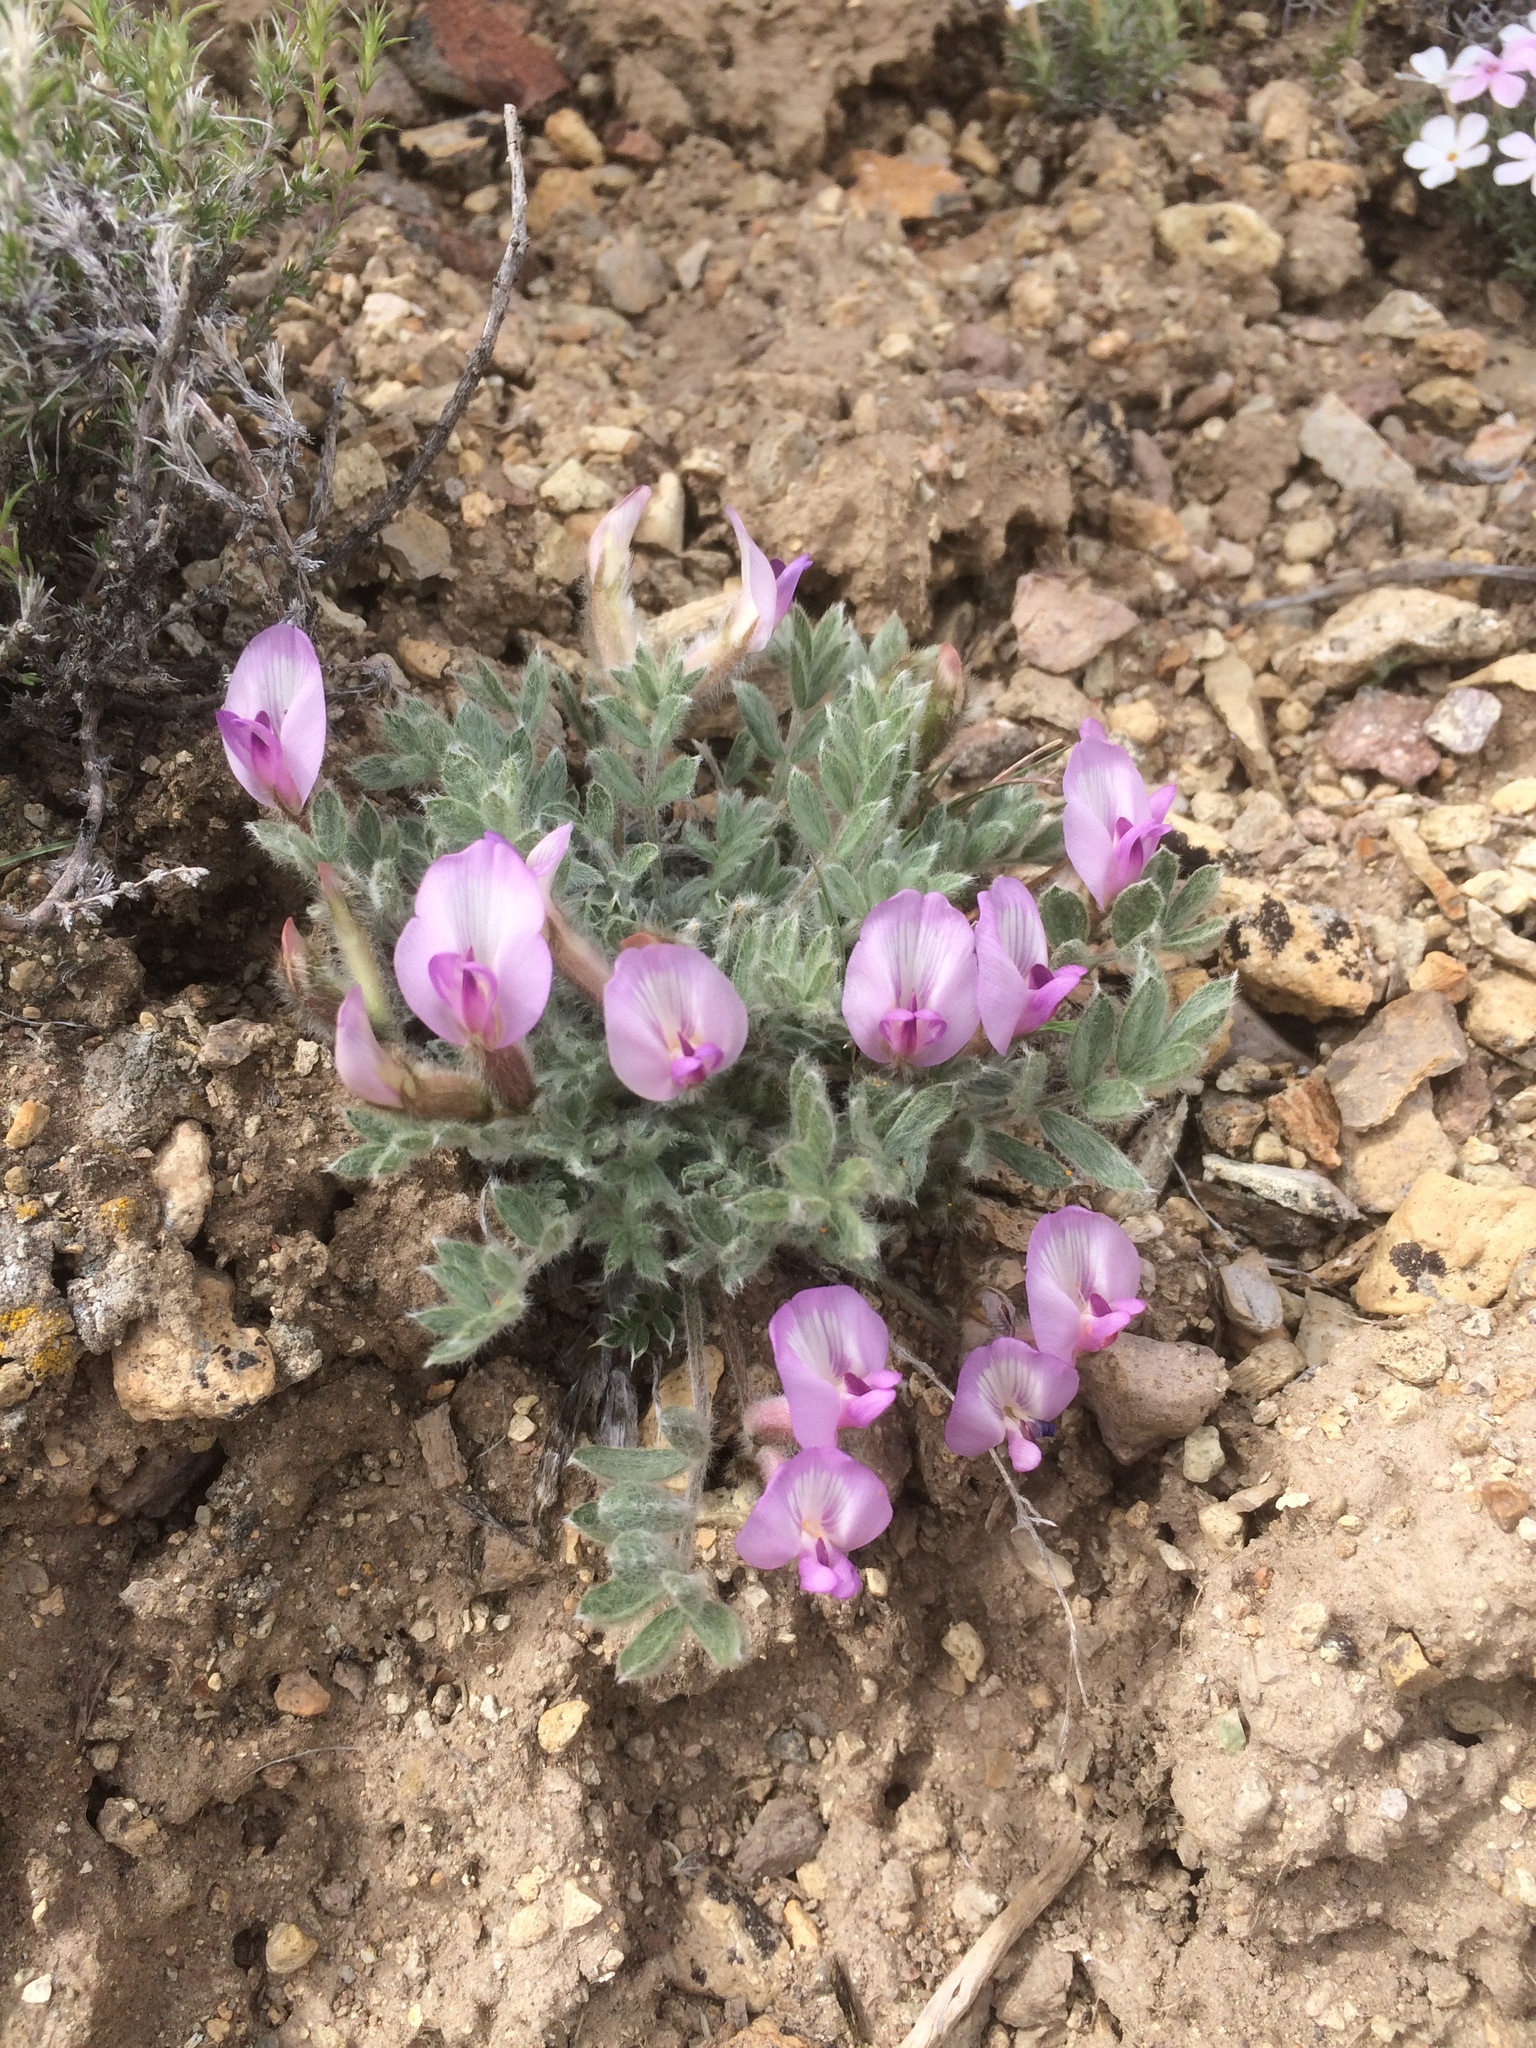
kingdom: Plantae
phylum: Tracheophyta
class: Magnoliopsida
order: Fabales
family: Fabaceae
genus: Astragalus
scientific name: Astragalus purshii
